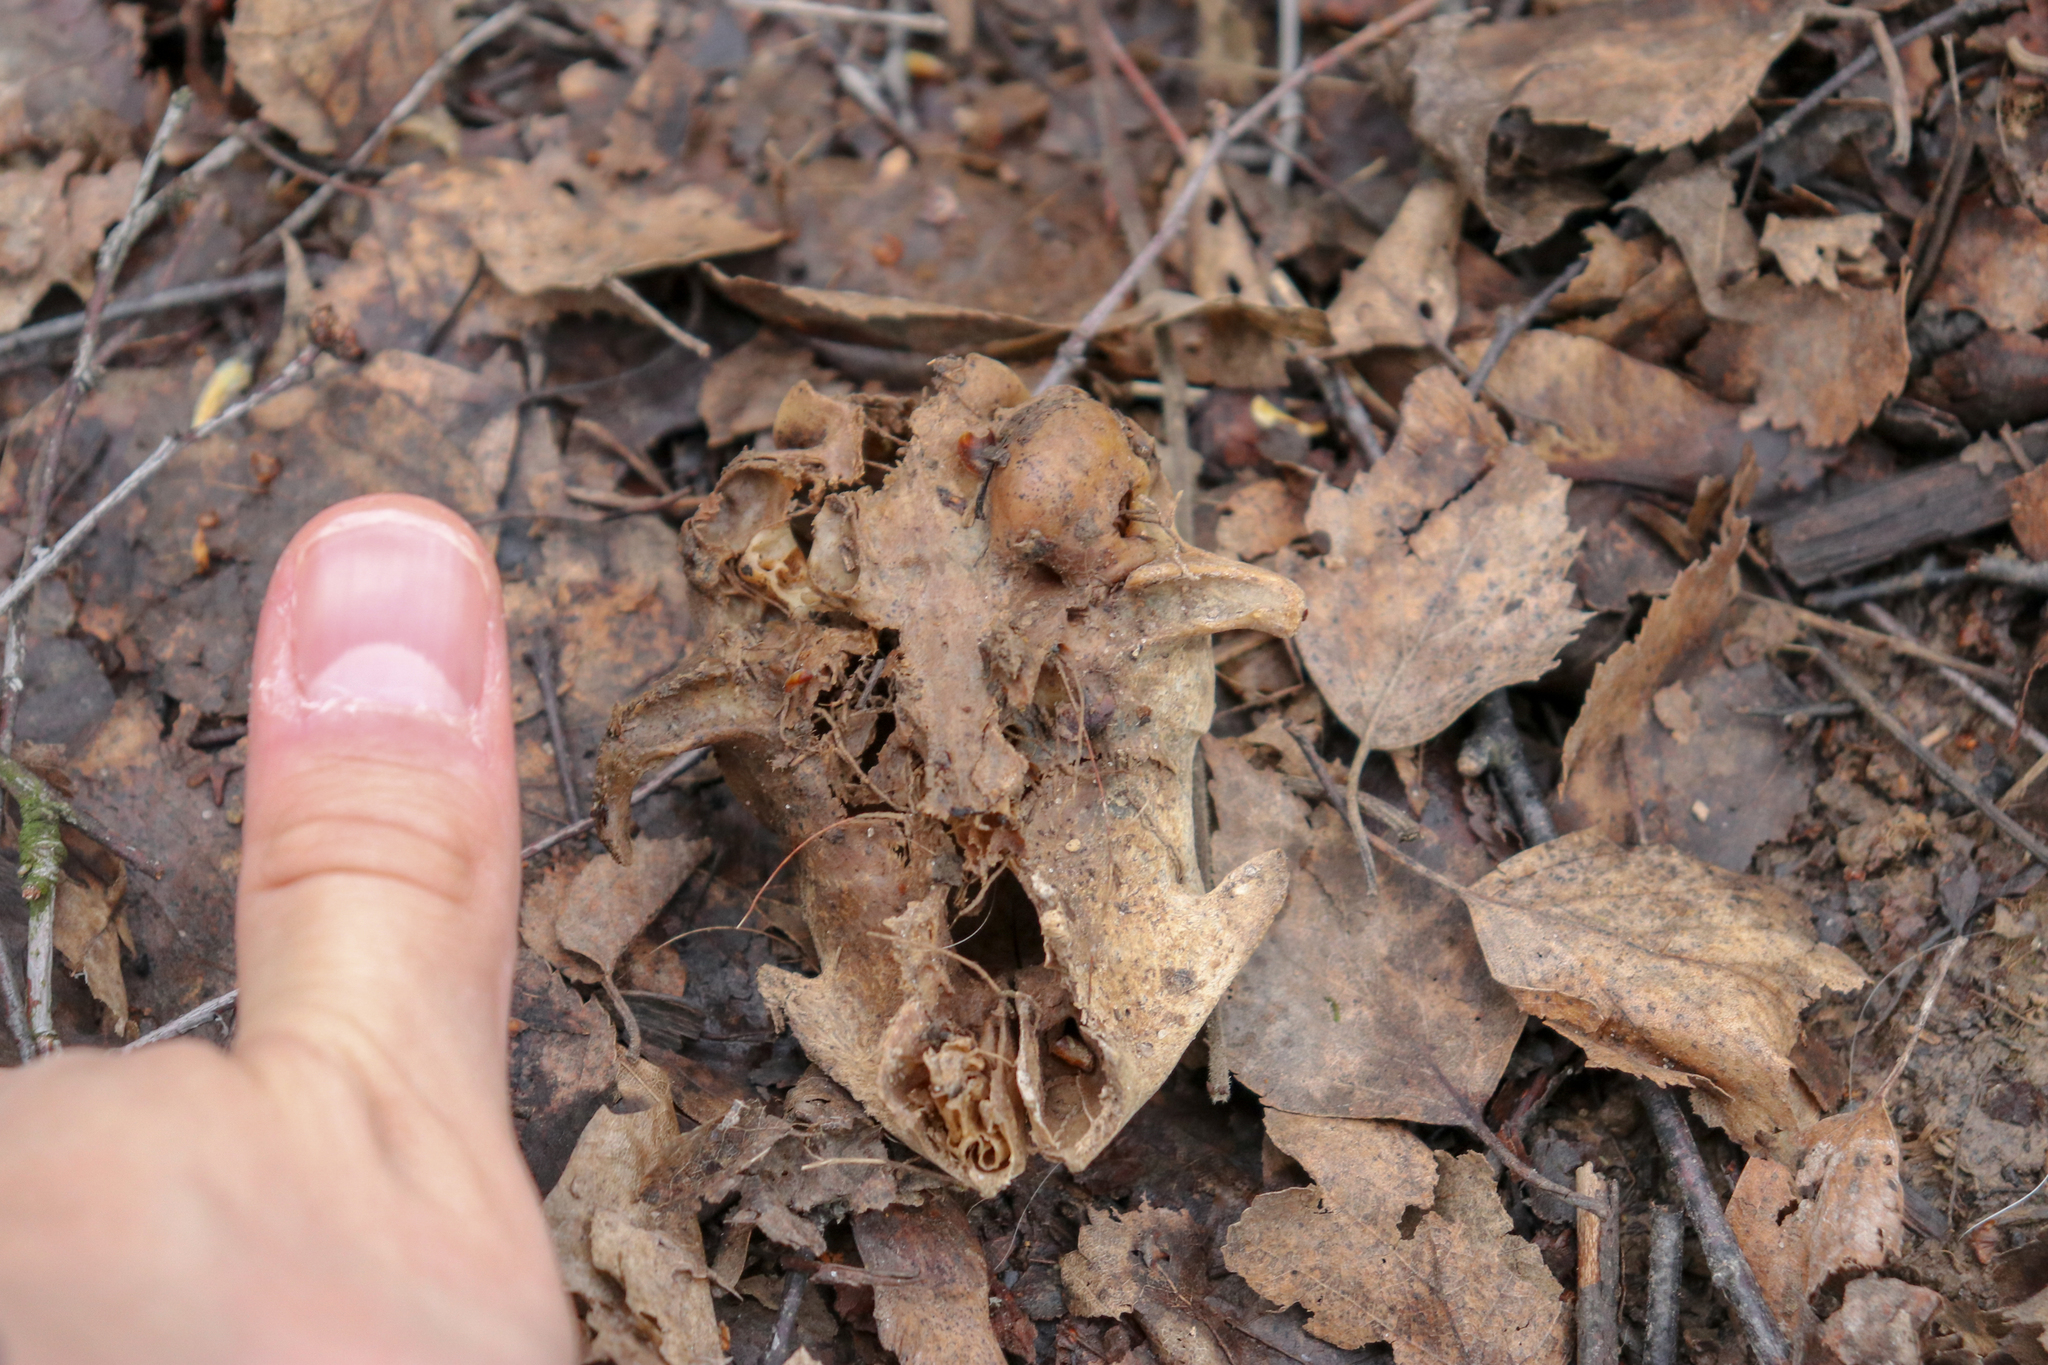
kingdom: Animalia
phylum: Chordata
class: Mammalia
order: Carnivora
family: Felidae
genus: Felis
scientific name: Felis catus
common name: Domestic cat
